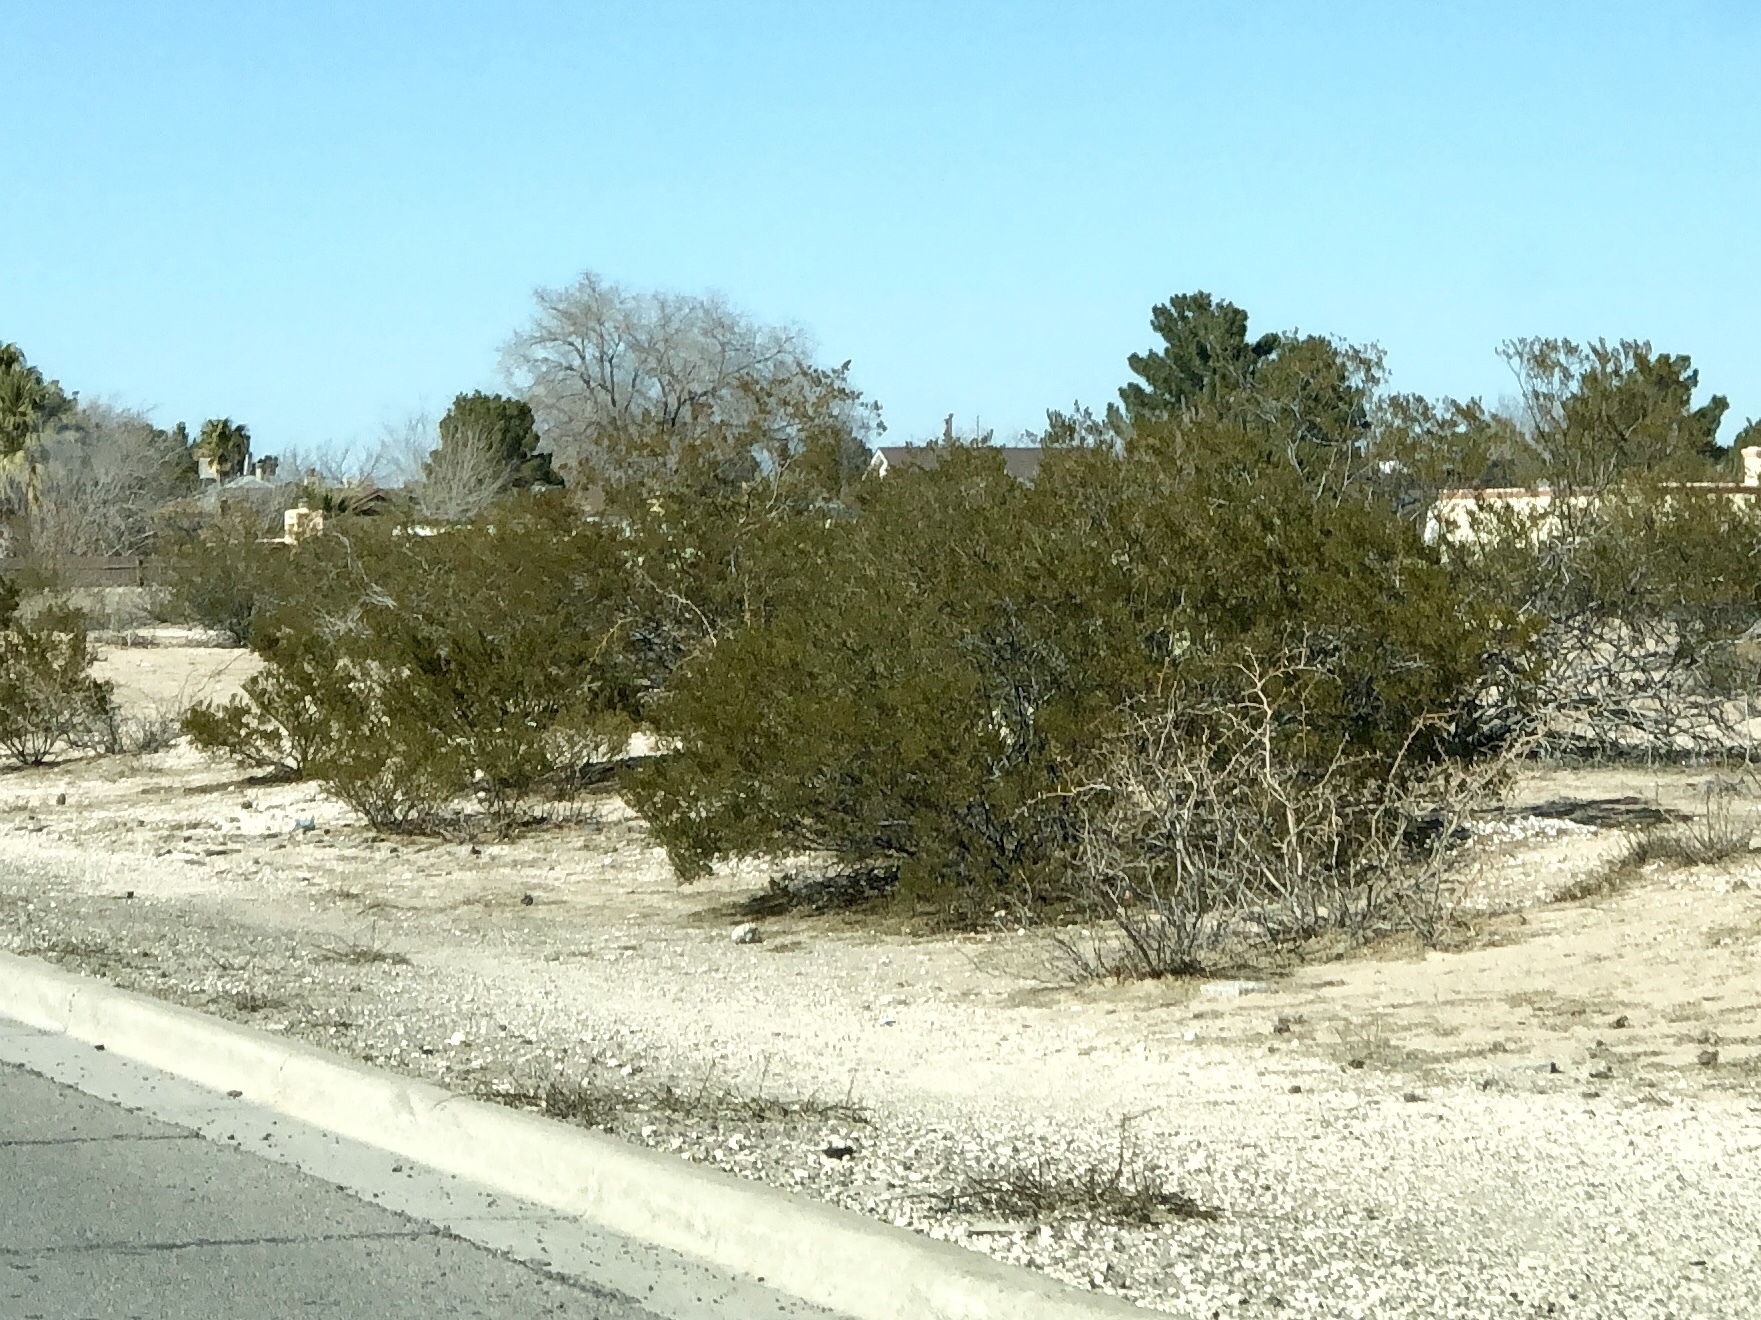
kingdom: Plantae
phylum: Tracheophyta
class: Magnoliopsida
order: Zygophyllales
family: Zygophyllaceae
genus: Larrea
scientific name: Larrea tridentata
